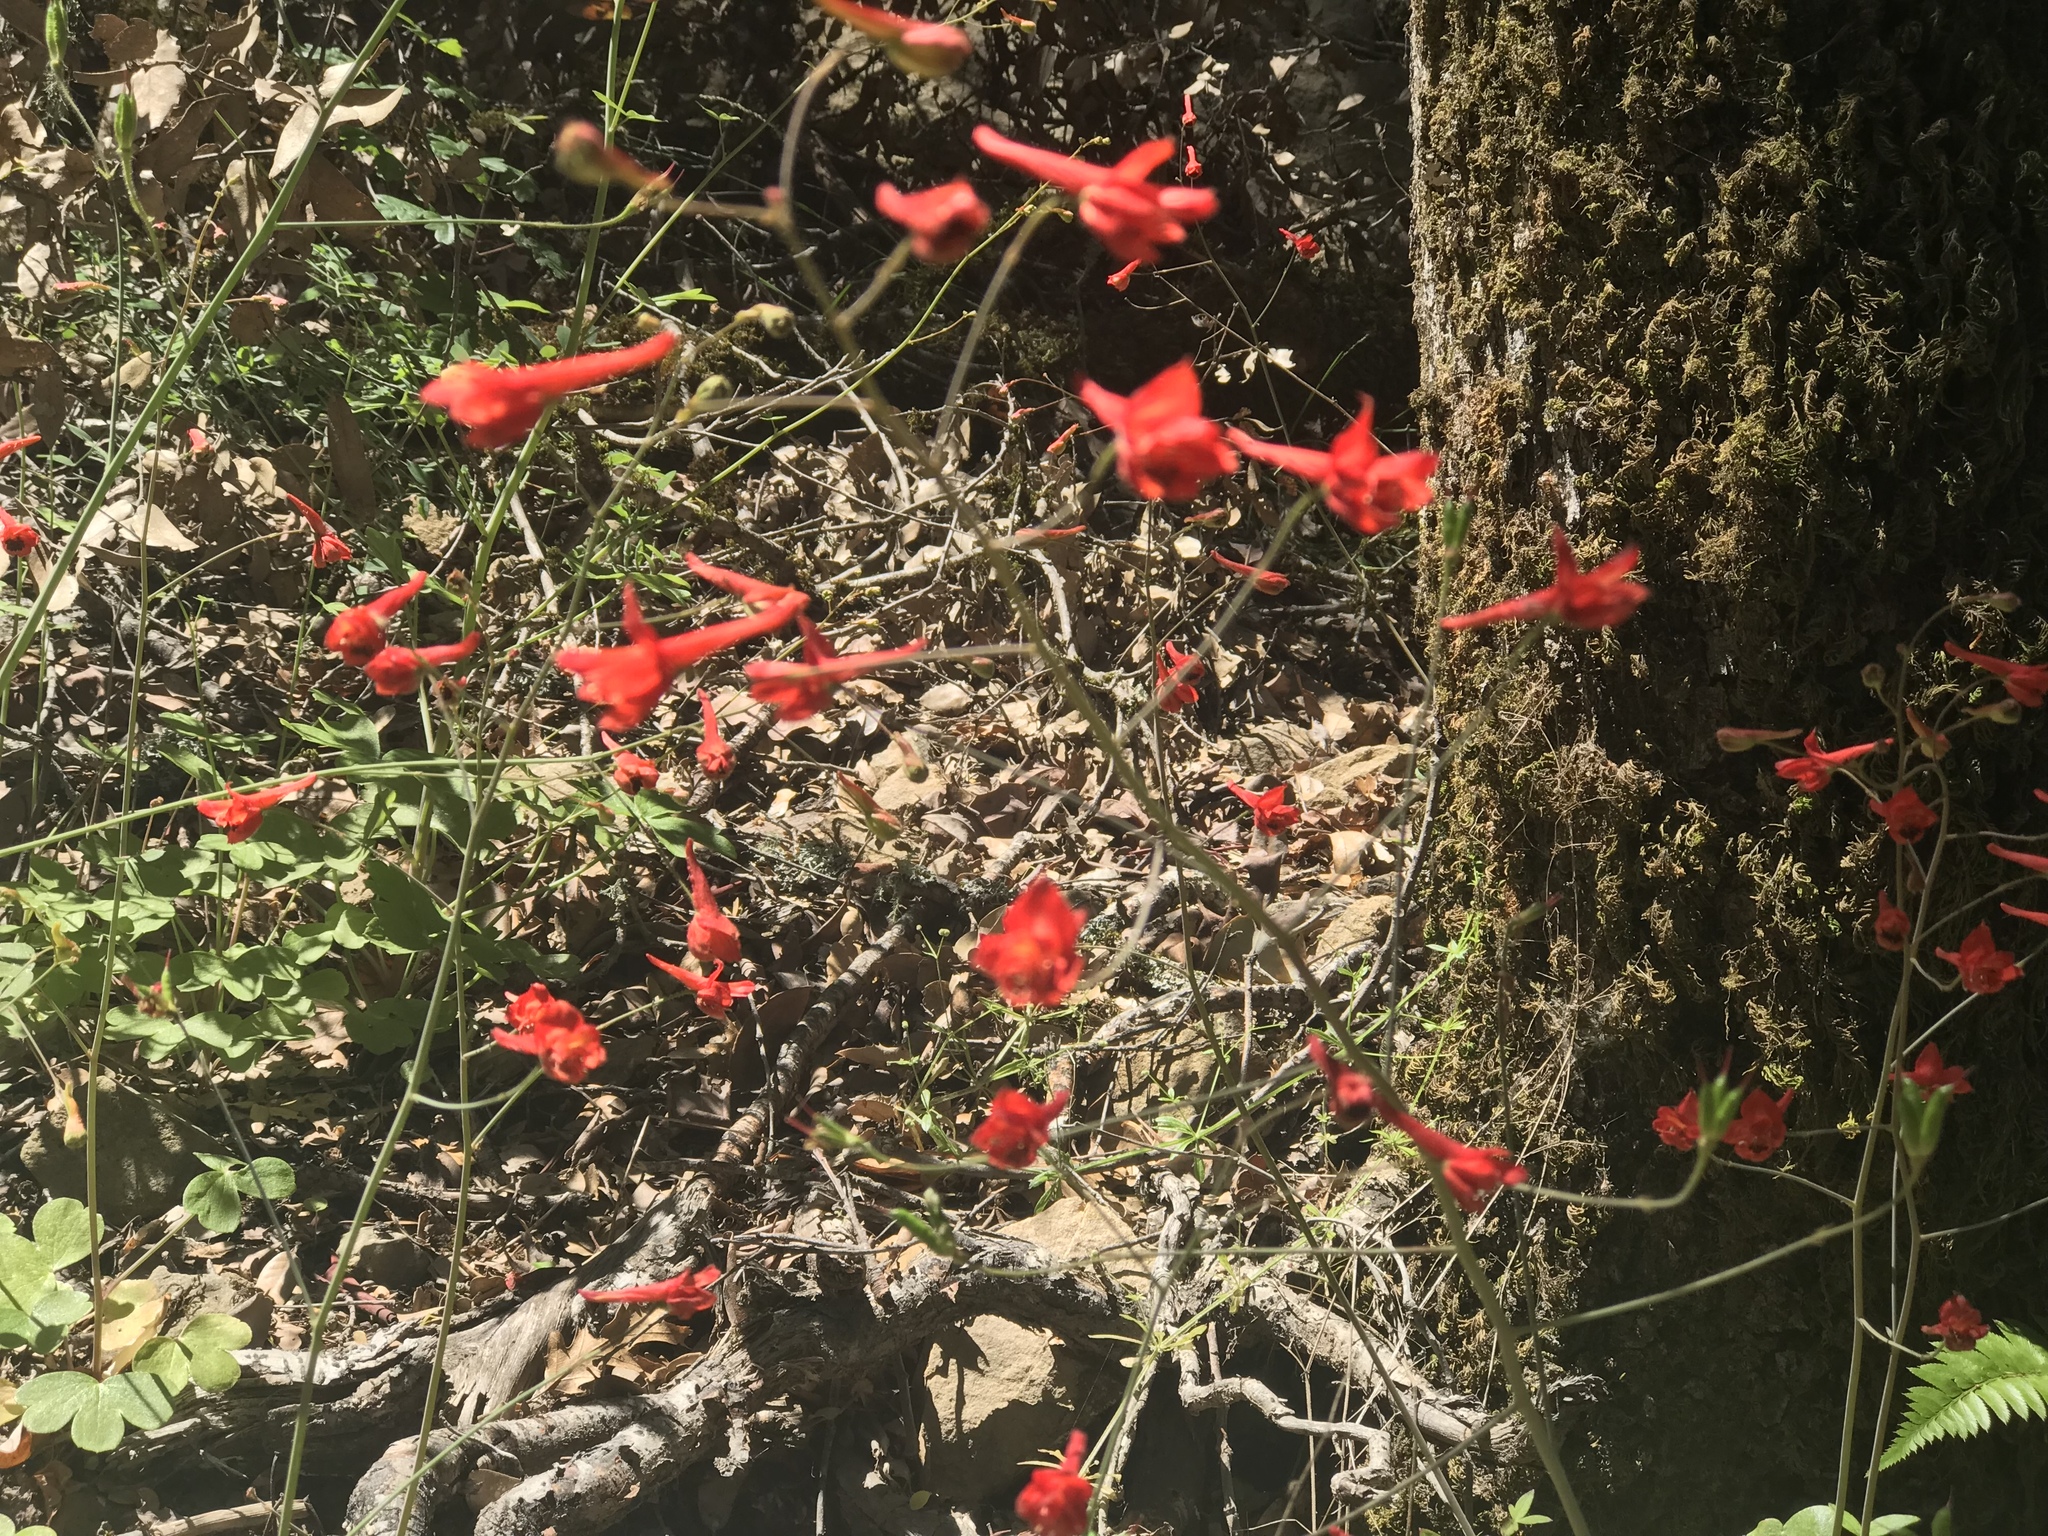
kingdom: Plantae
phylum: Tracheophyta
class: Magnoliopsida
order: Ranunculales
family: Ranunculaceae
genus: Delphinium
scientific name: Delphinium nudicaule
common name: Red larkspur
